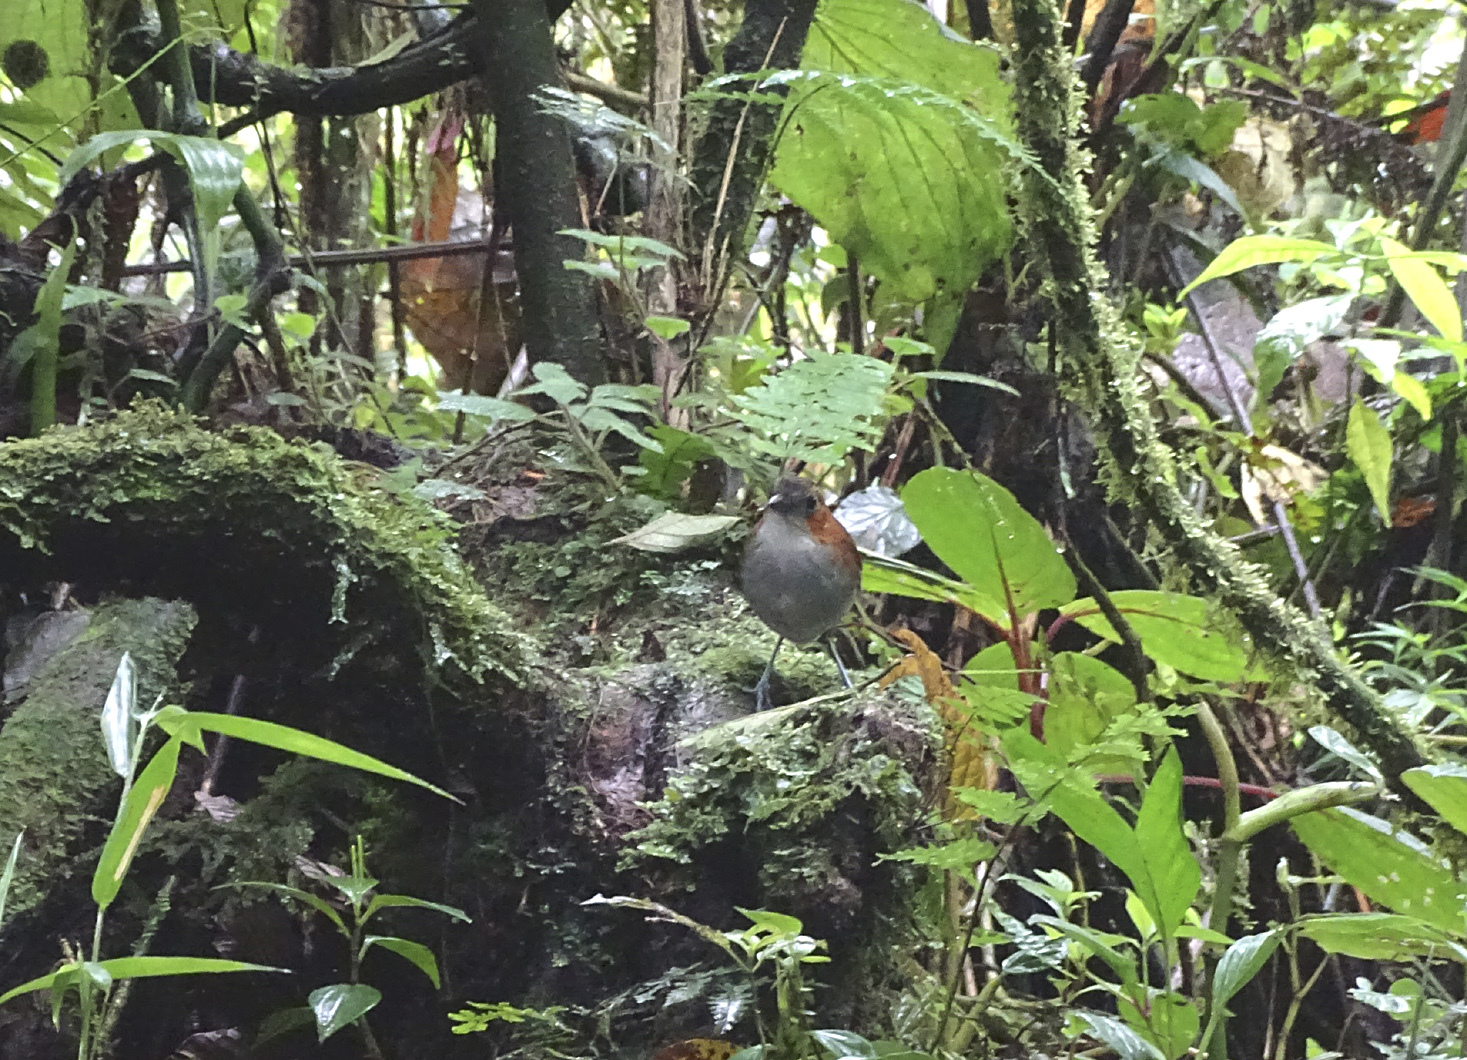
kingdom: Animalia
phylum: Chordata
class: Aves
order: Passeriformes
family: Grallariidae
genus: Grallaria
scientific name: Grallaria hypoleuca
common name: White-bellied antpitta
